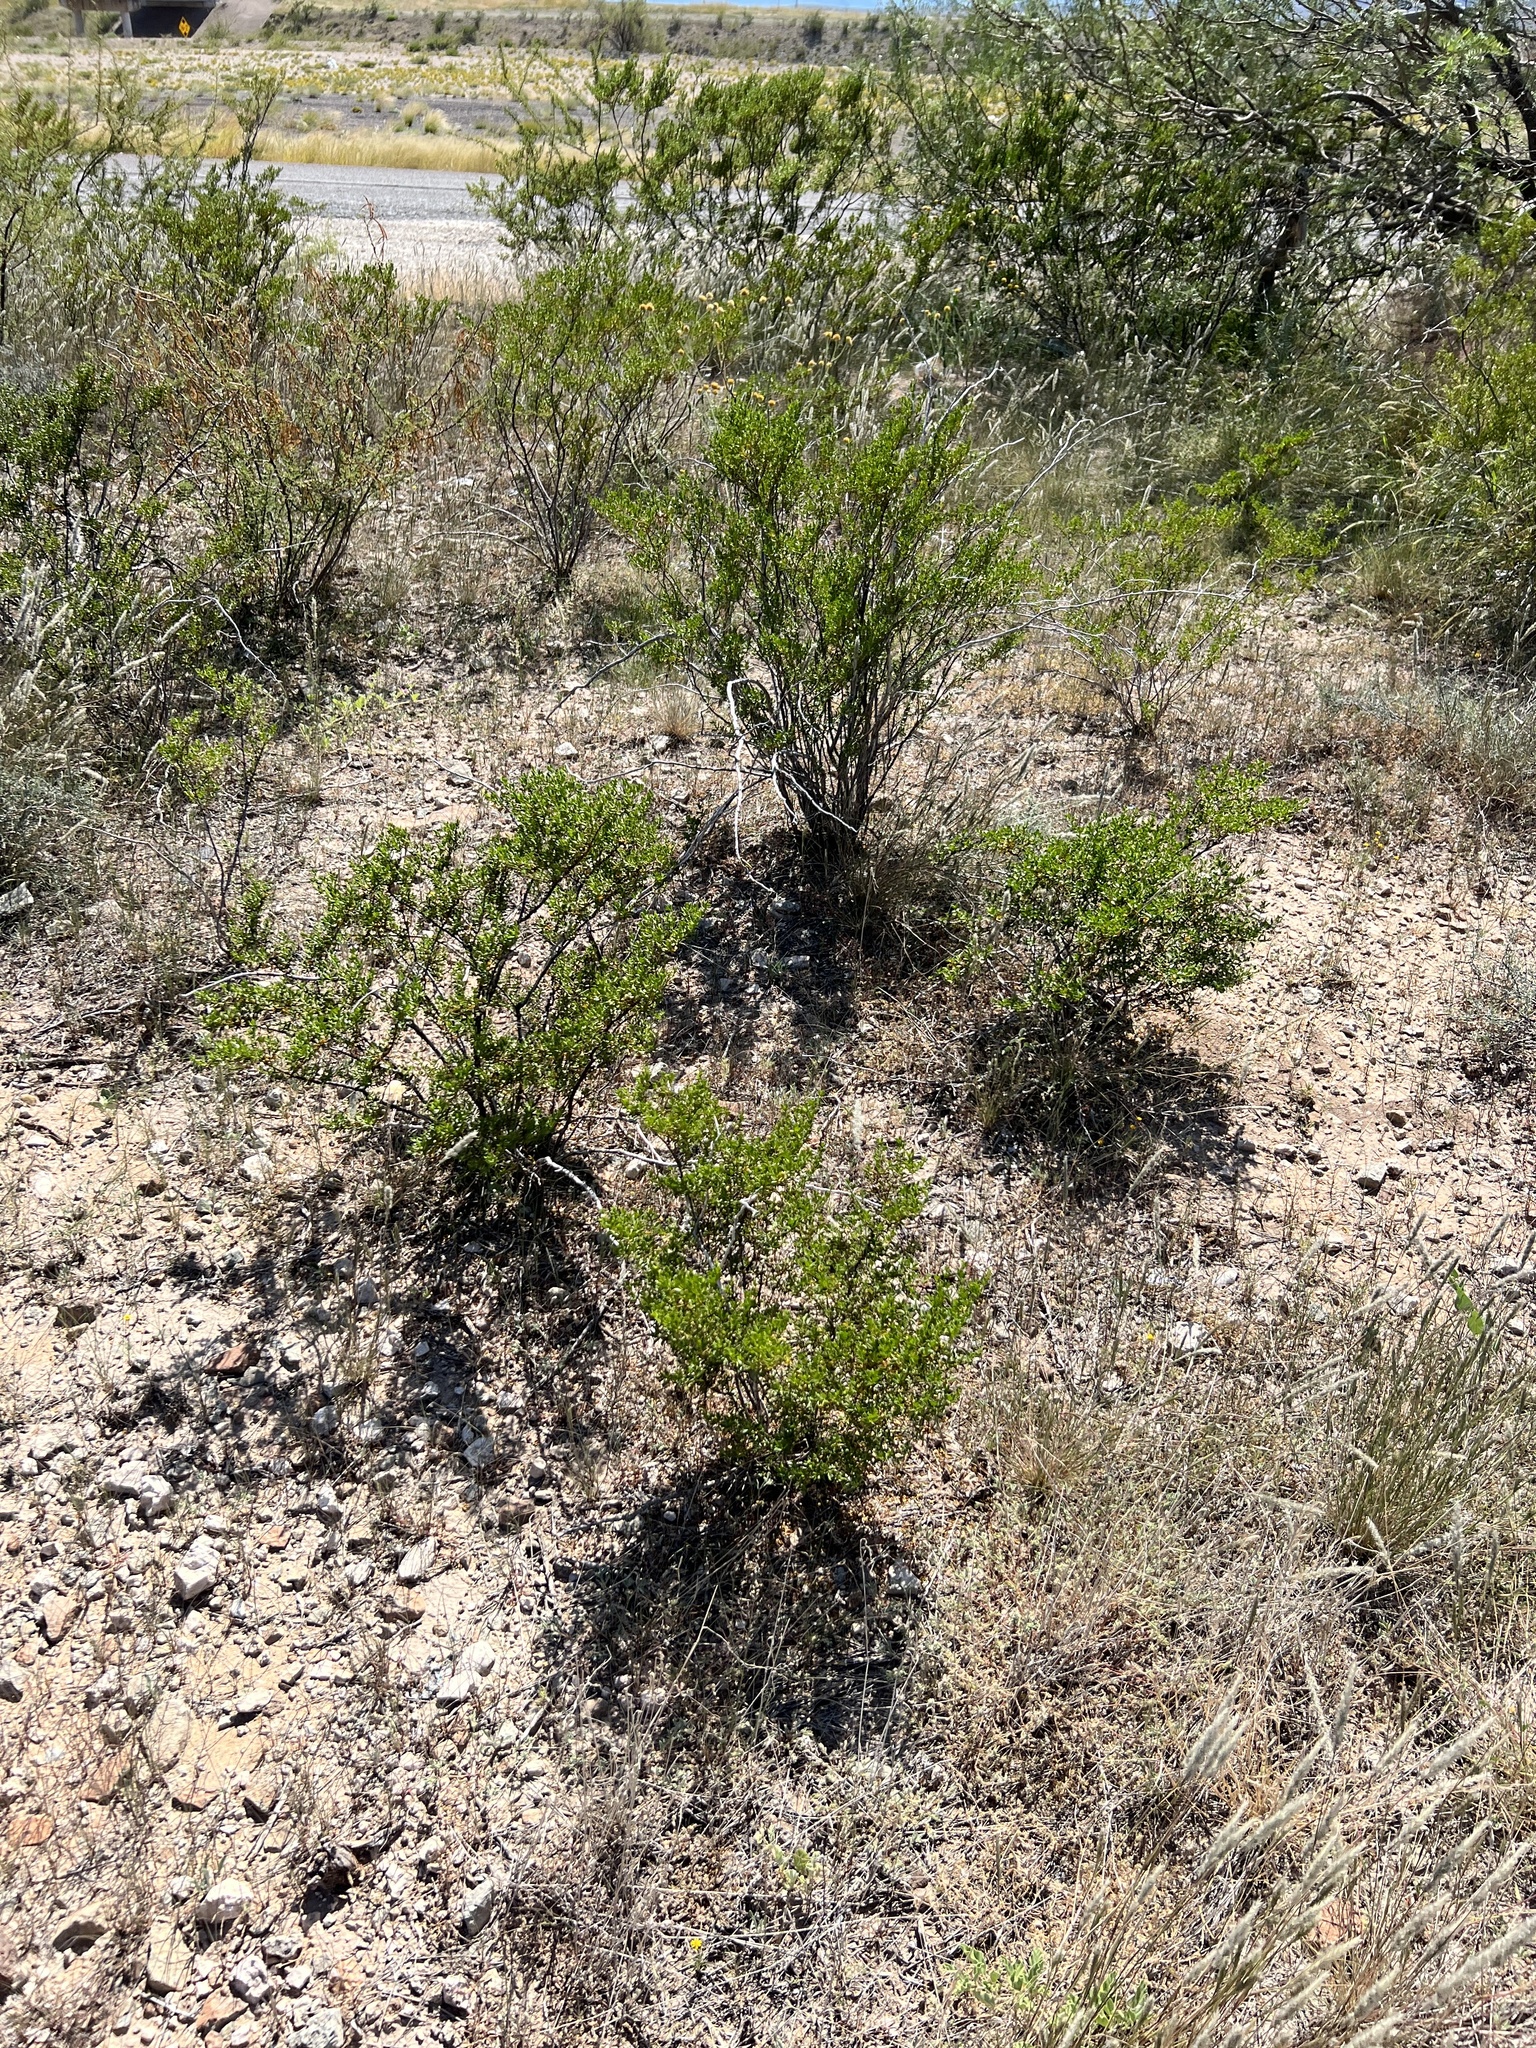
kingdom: Plantae
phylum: Tracheophyta
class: Magnoliopsida
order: Zygophyllales
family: Zygophyllaceae
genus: Larrea
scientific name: Larrea tridentata
